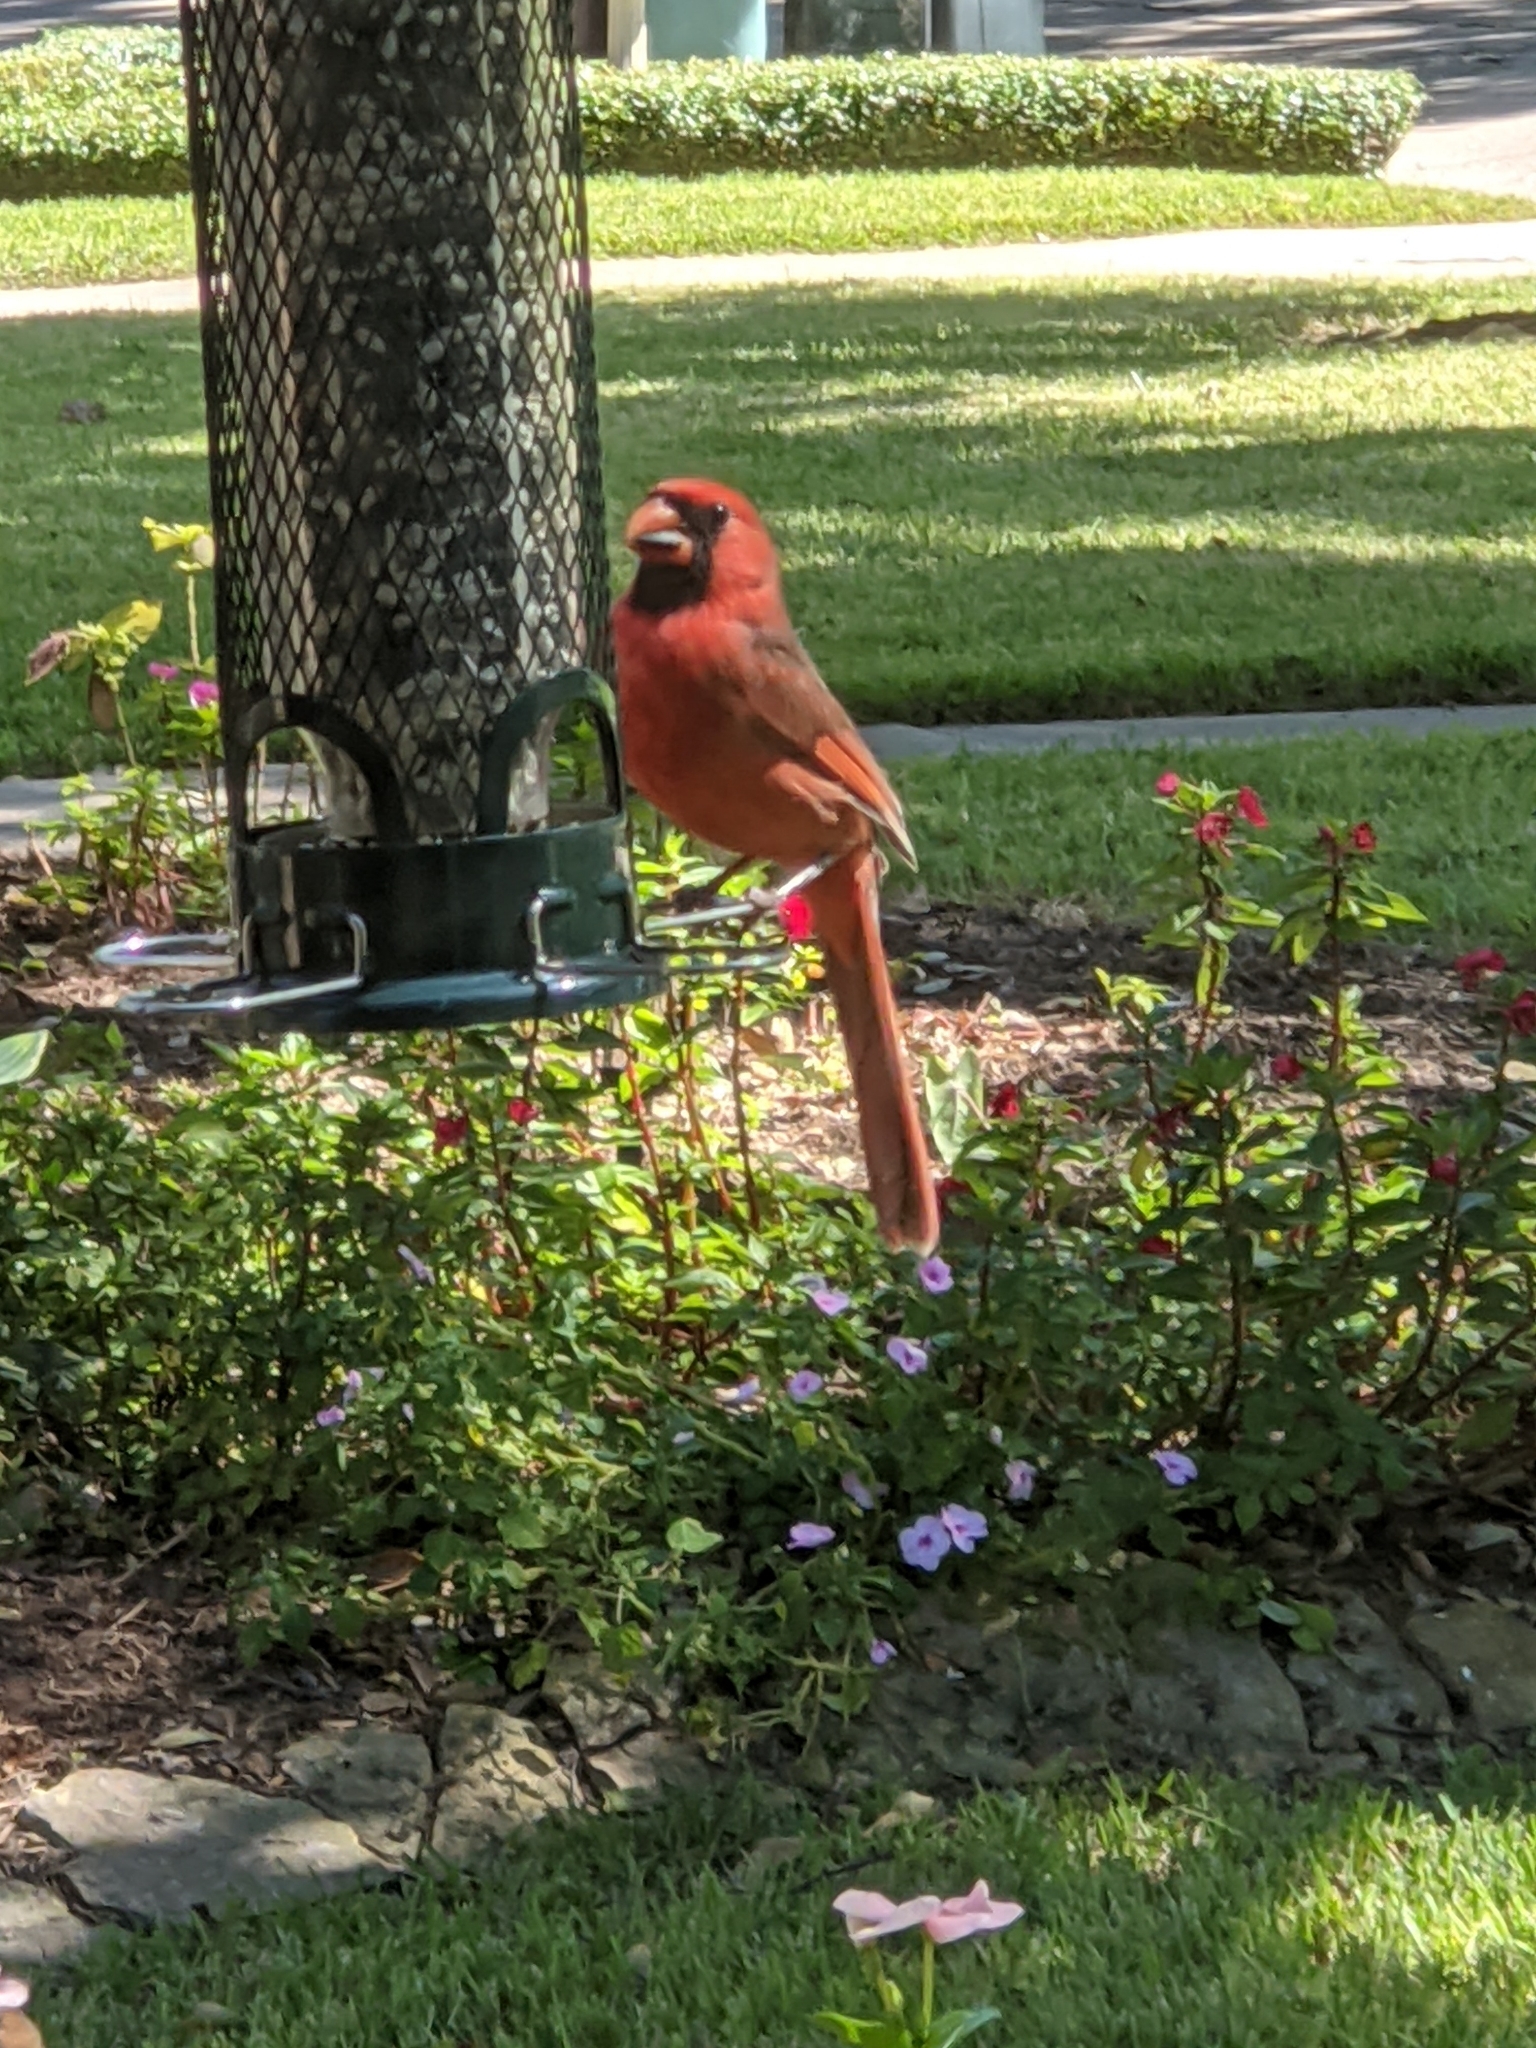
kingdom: Animalia
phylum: Chordata
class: Aves
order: Passeriformes
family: Cardinalidae
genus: Cardinalis
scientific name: Cardinalis cardinalis
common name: Northern cardinal
